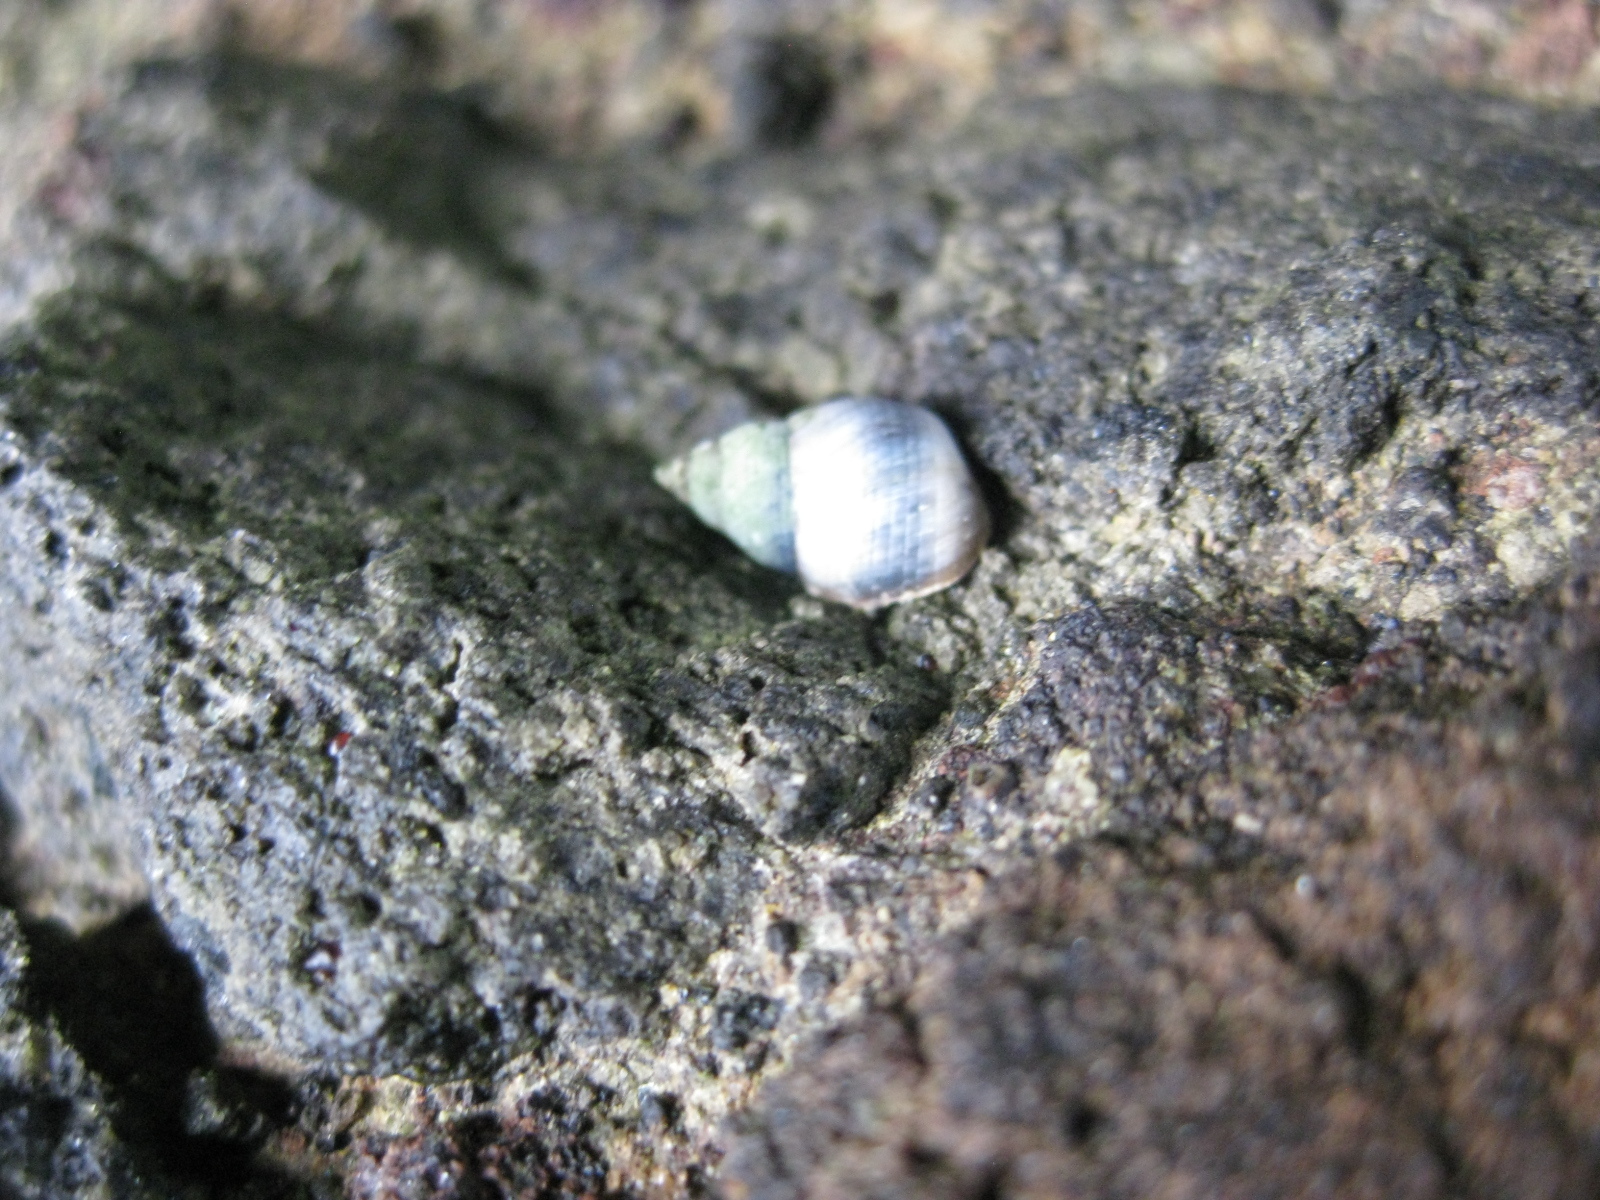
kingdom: Animalia
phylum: Mollusca
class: Gastropoda
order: Littorinimorpha
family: Littorinidae
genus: Austrolittorina
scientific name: Austrolittorina antipodum
